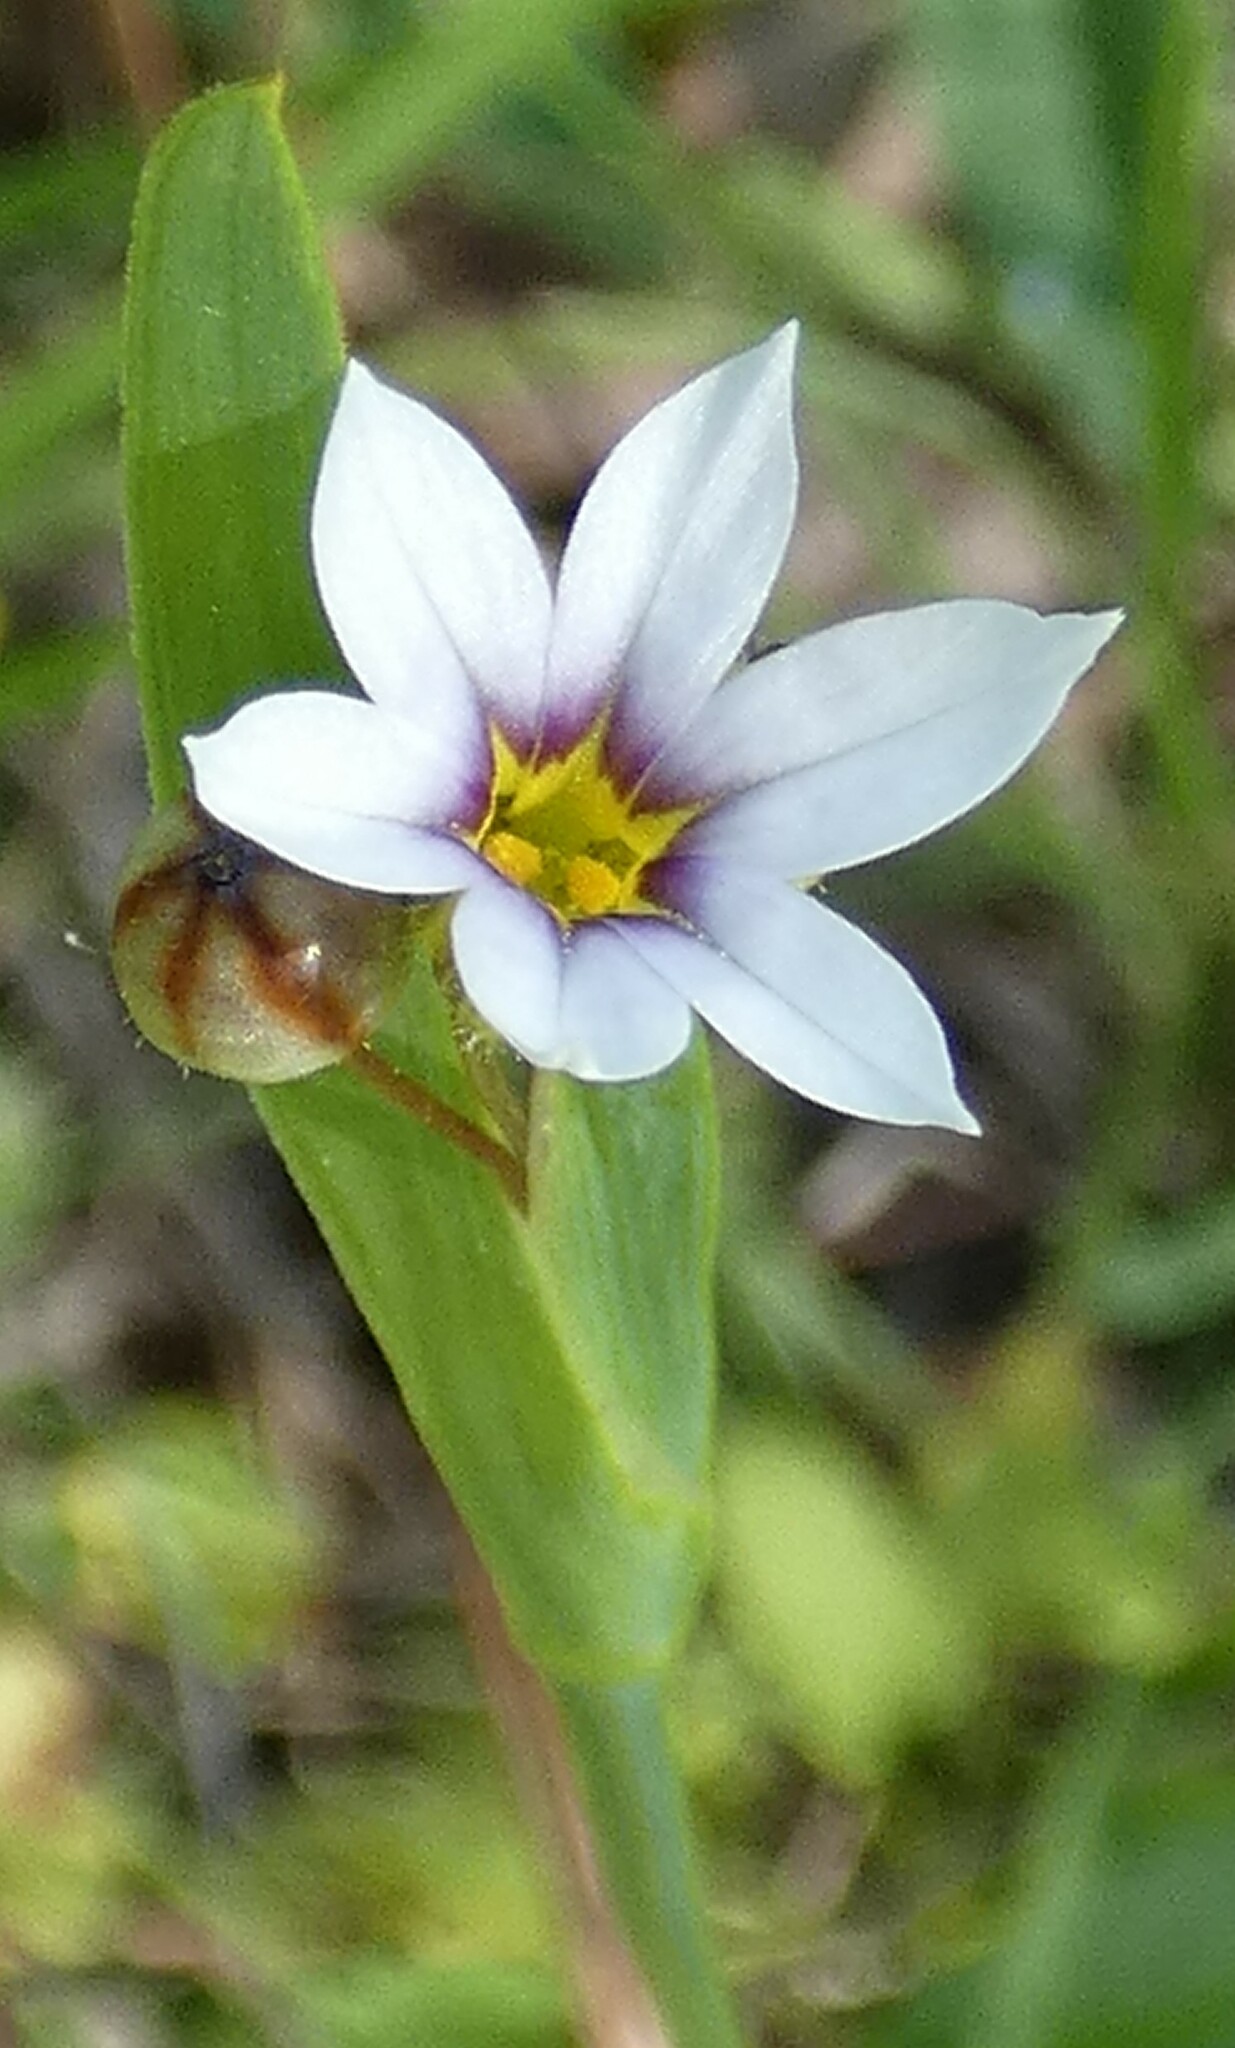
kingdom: Plantae
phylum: Tracheophyta
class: Liliopsida
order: Asparagales
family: Iridaceae
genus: Sisyrinchium
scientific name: Sisyrinchium micranthum
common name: Bermuda pigroot
